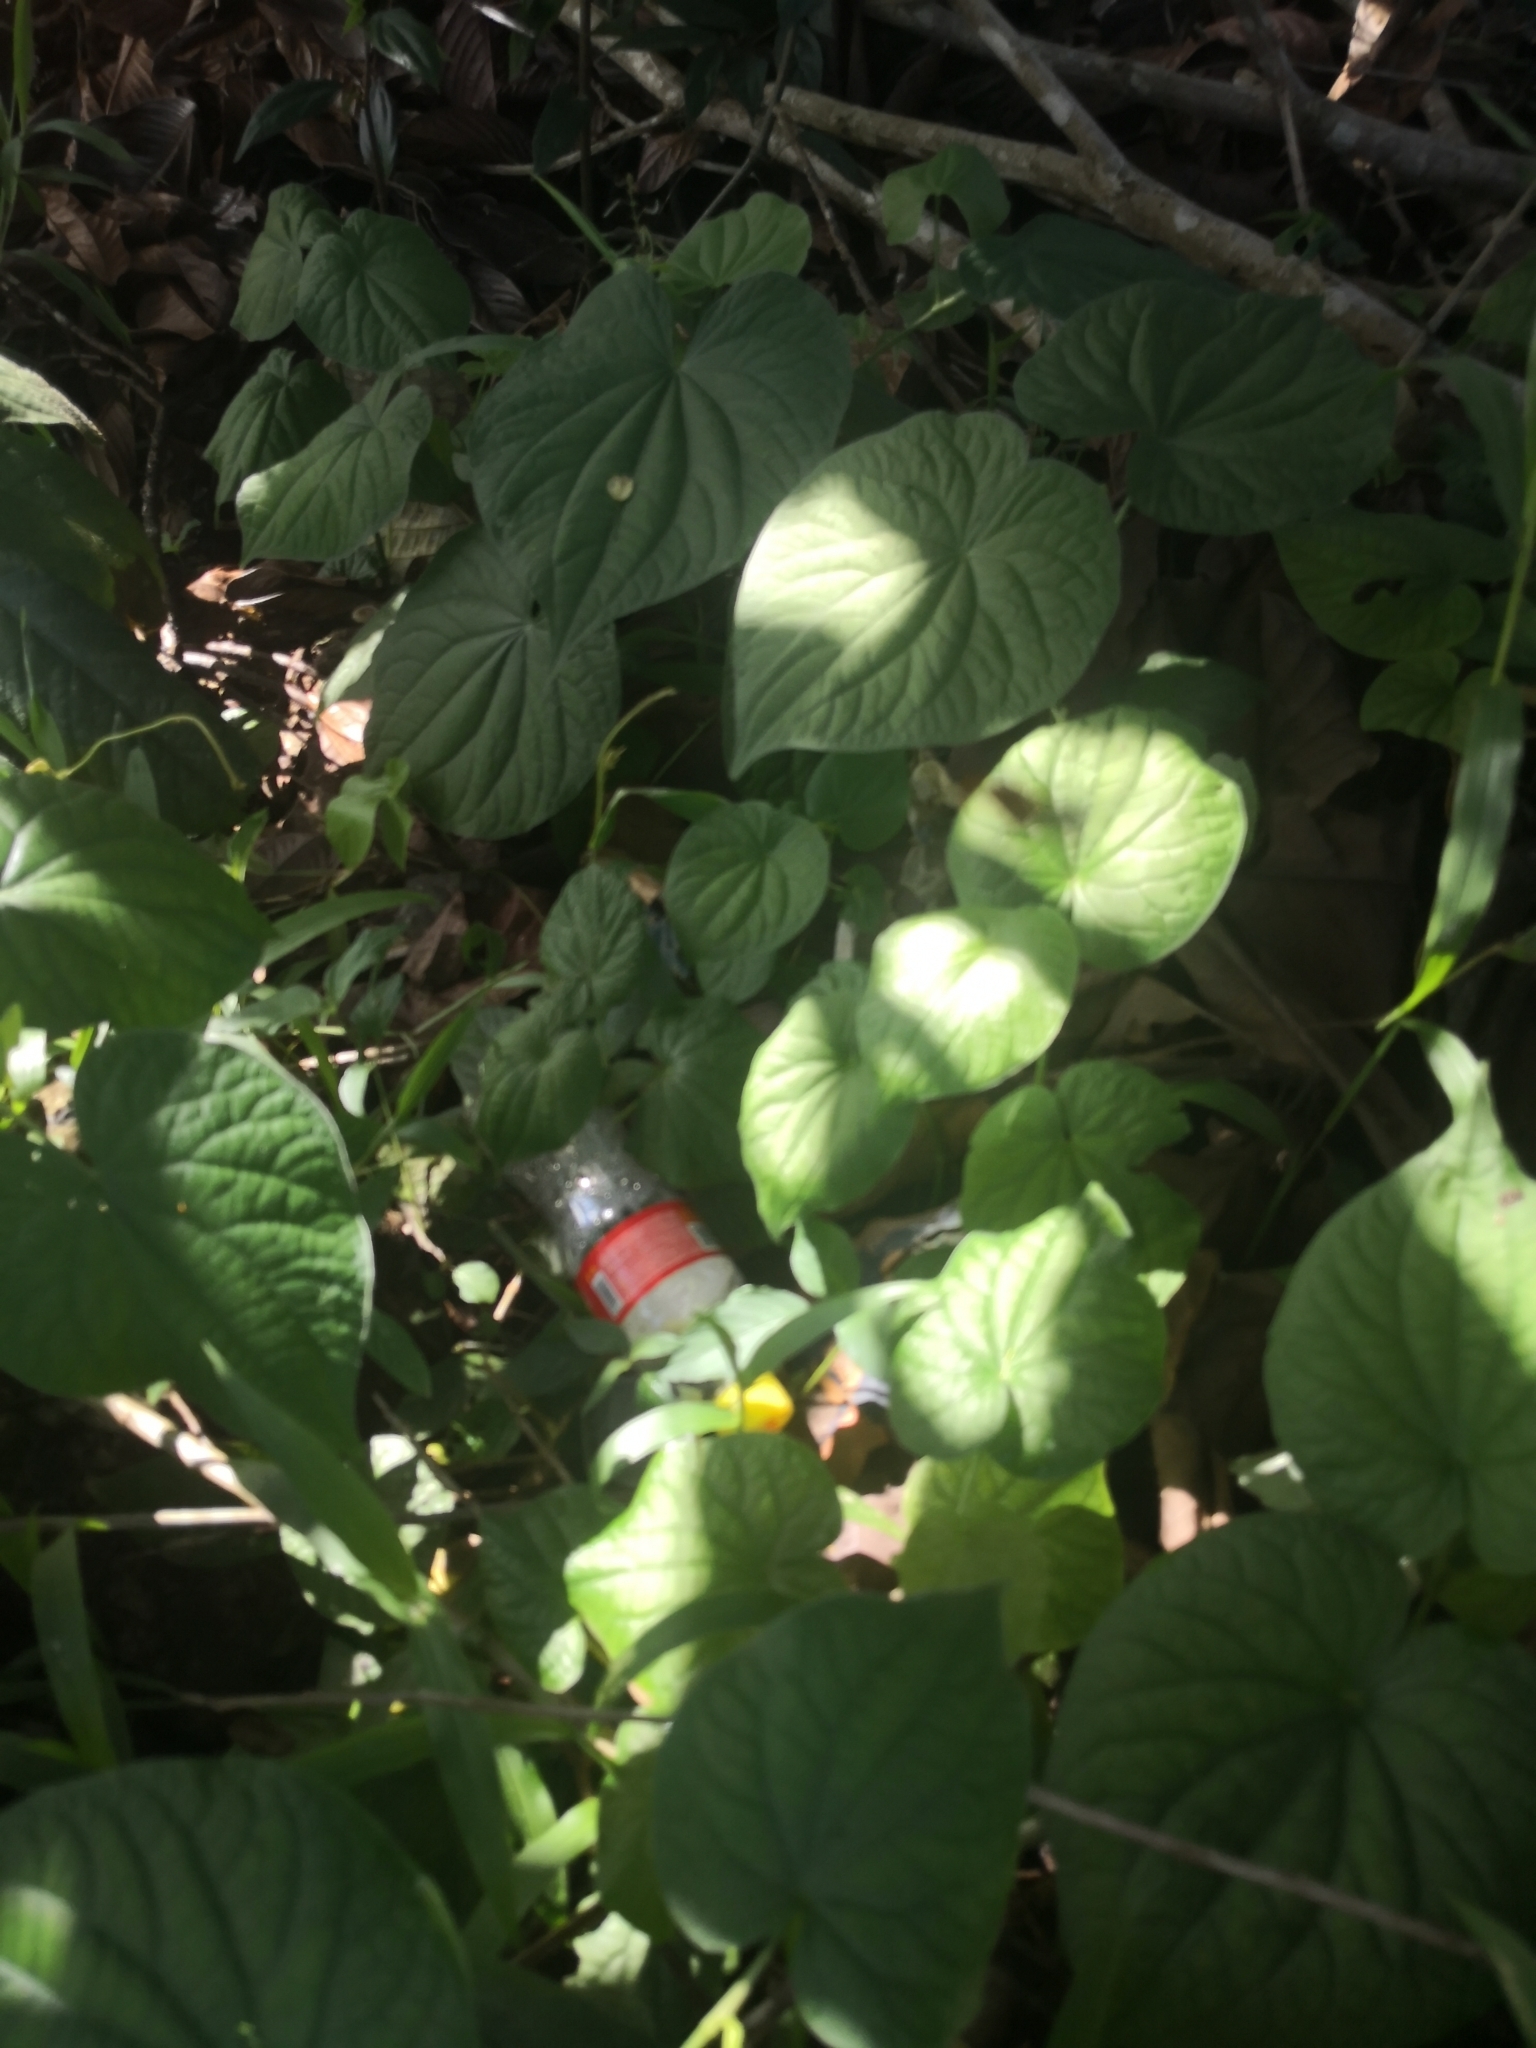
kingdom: Plantae
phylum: Tracheophyta
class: Magnoliopsida
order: Piperales
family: Piperaceae
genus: Piper
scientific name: Piper umbellatum
